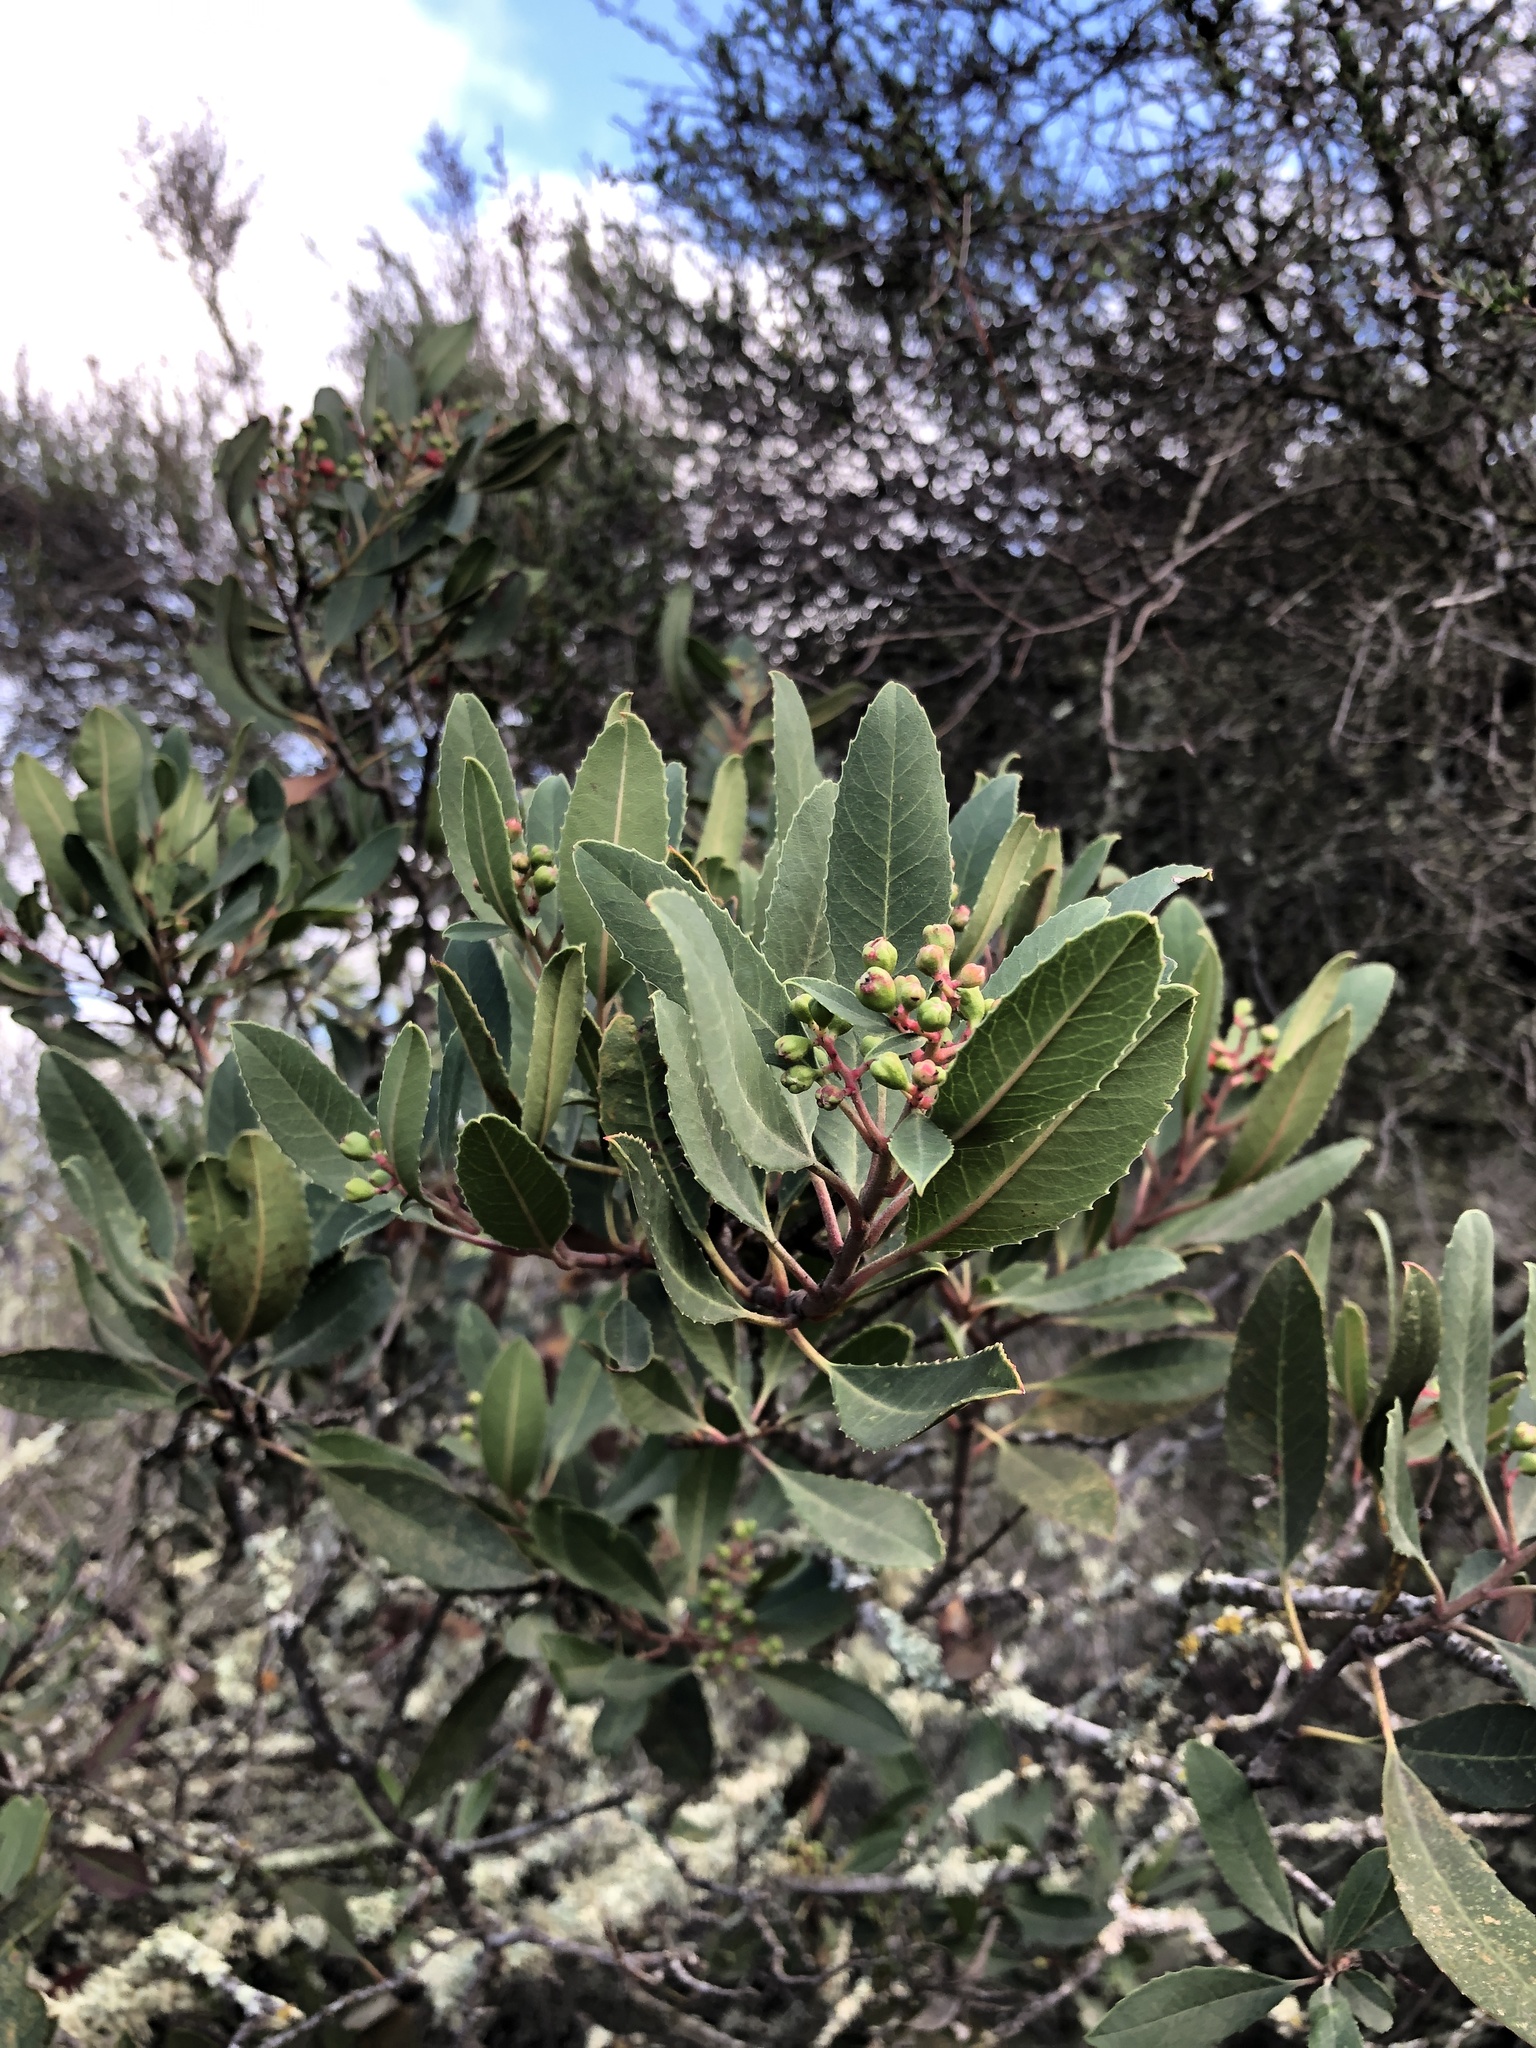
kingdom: Plantae
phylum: Tracheophyta
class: Magnoliopsida
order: Rosales
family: Rosaceae
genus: Heteromeles
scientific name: Heteromeles arbutifolia
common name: California-holly
